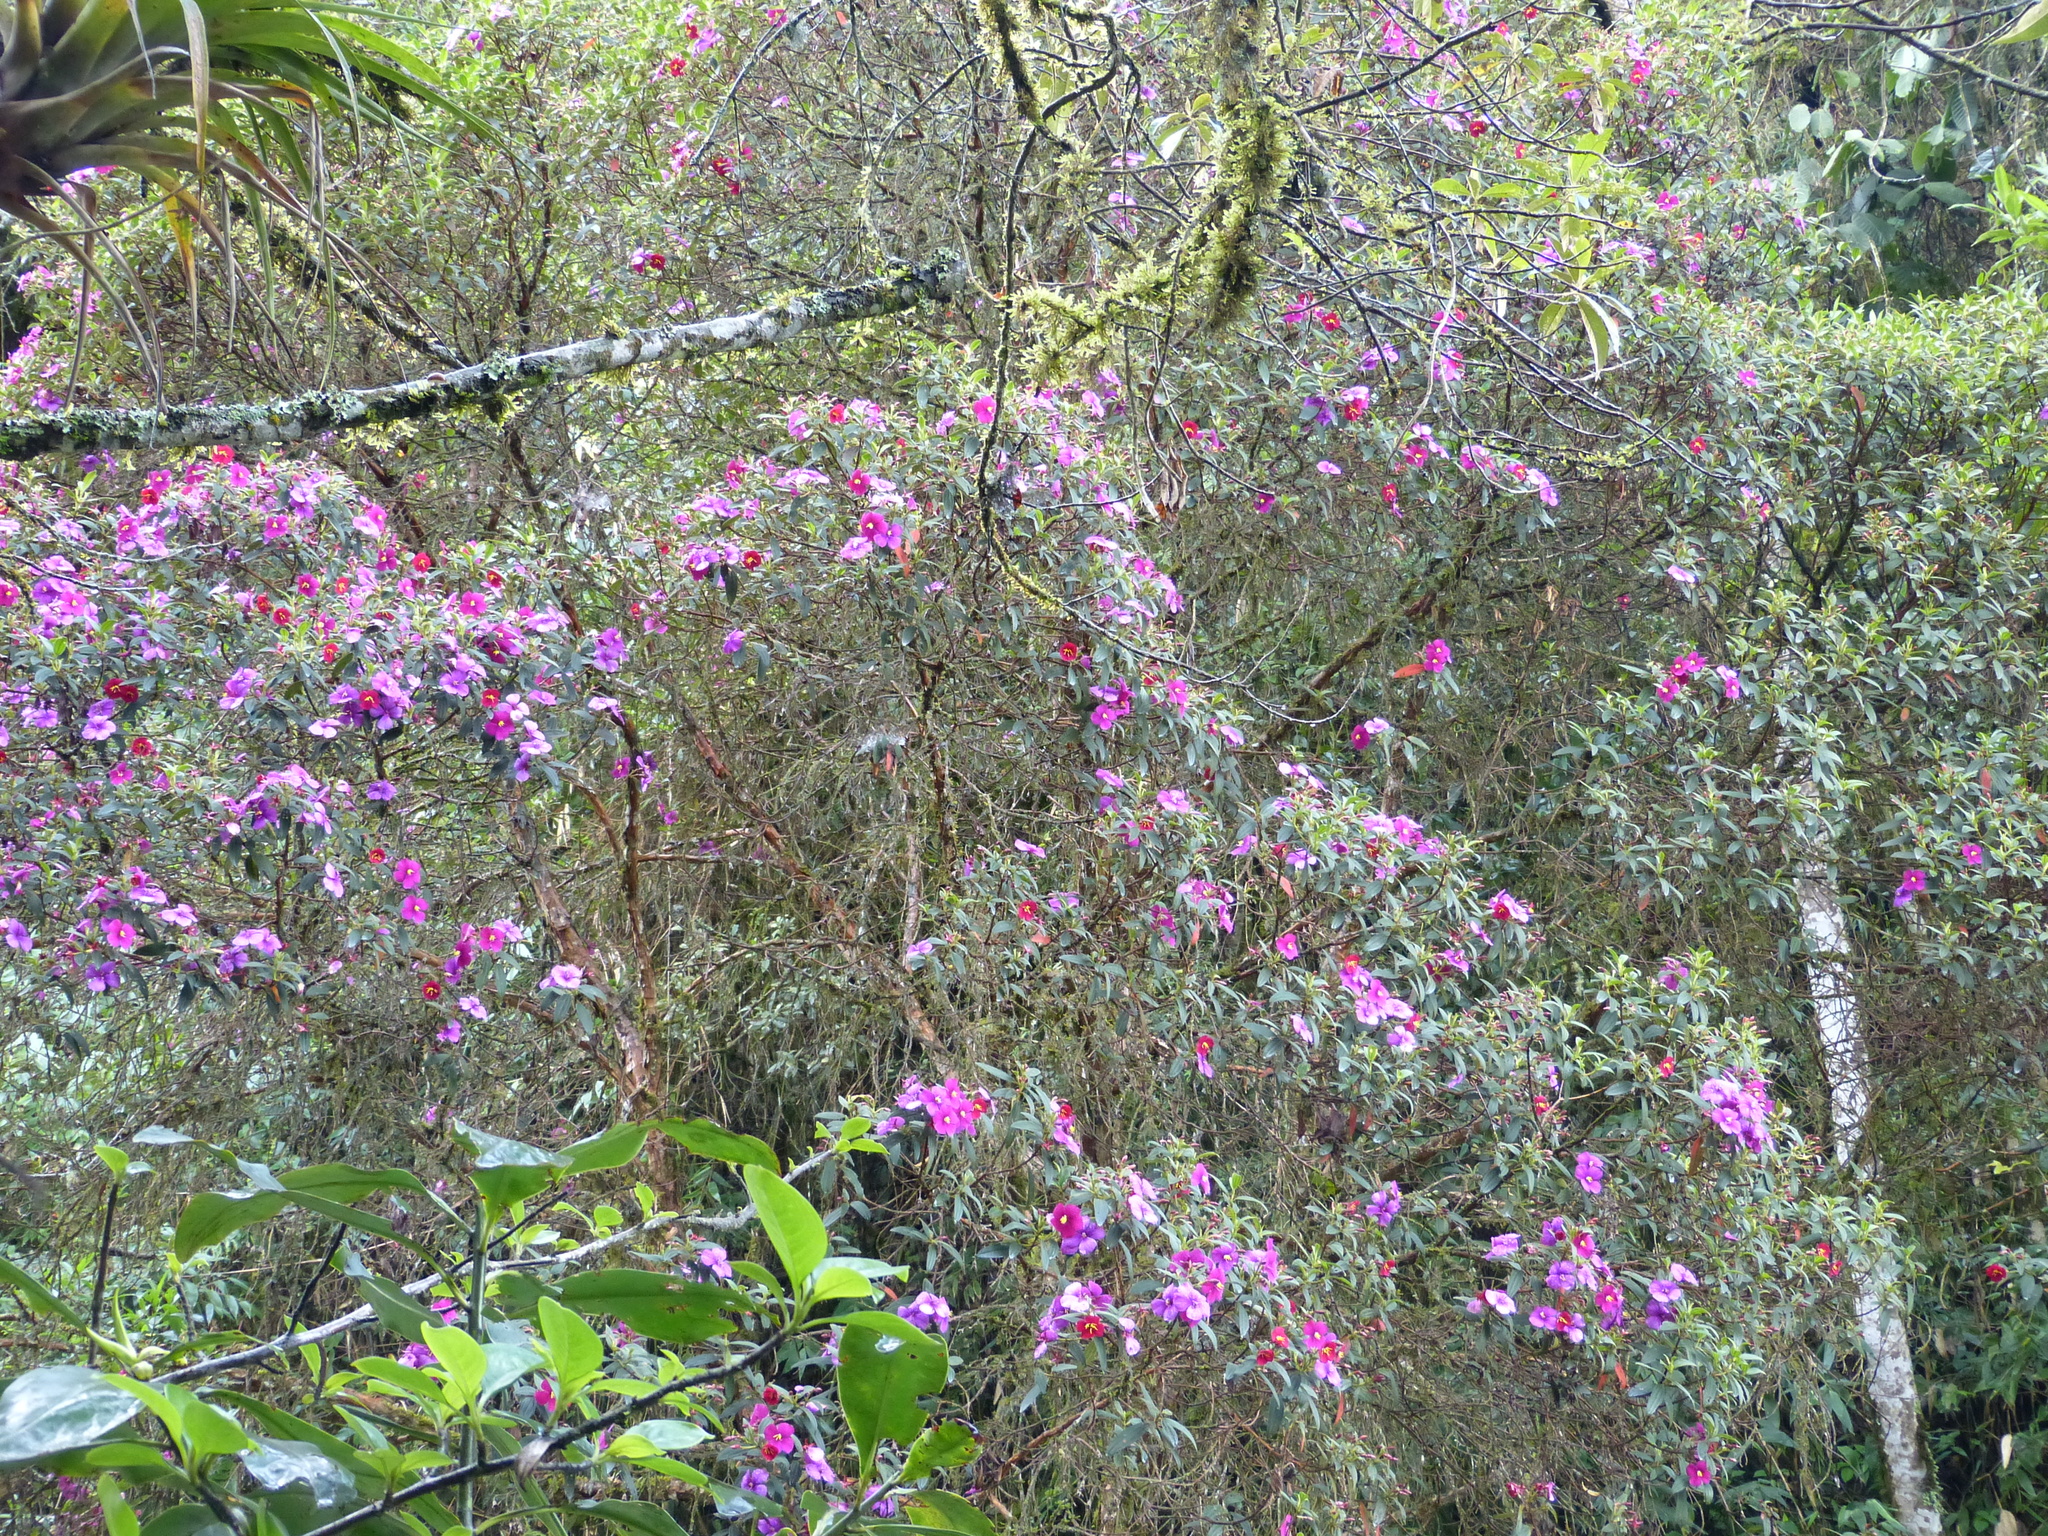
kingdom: Plantae
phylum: Tracheophyta
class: Magnoliopsida
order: Myrtales
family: Melastomataceae
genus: Andesanthus
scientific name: Andesanthus lepidotus
